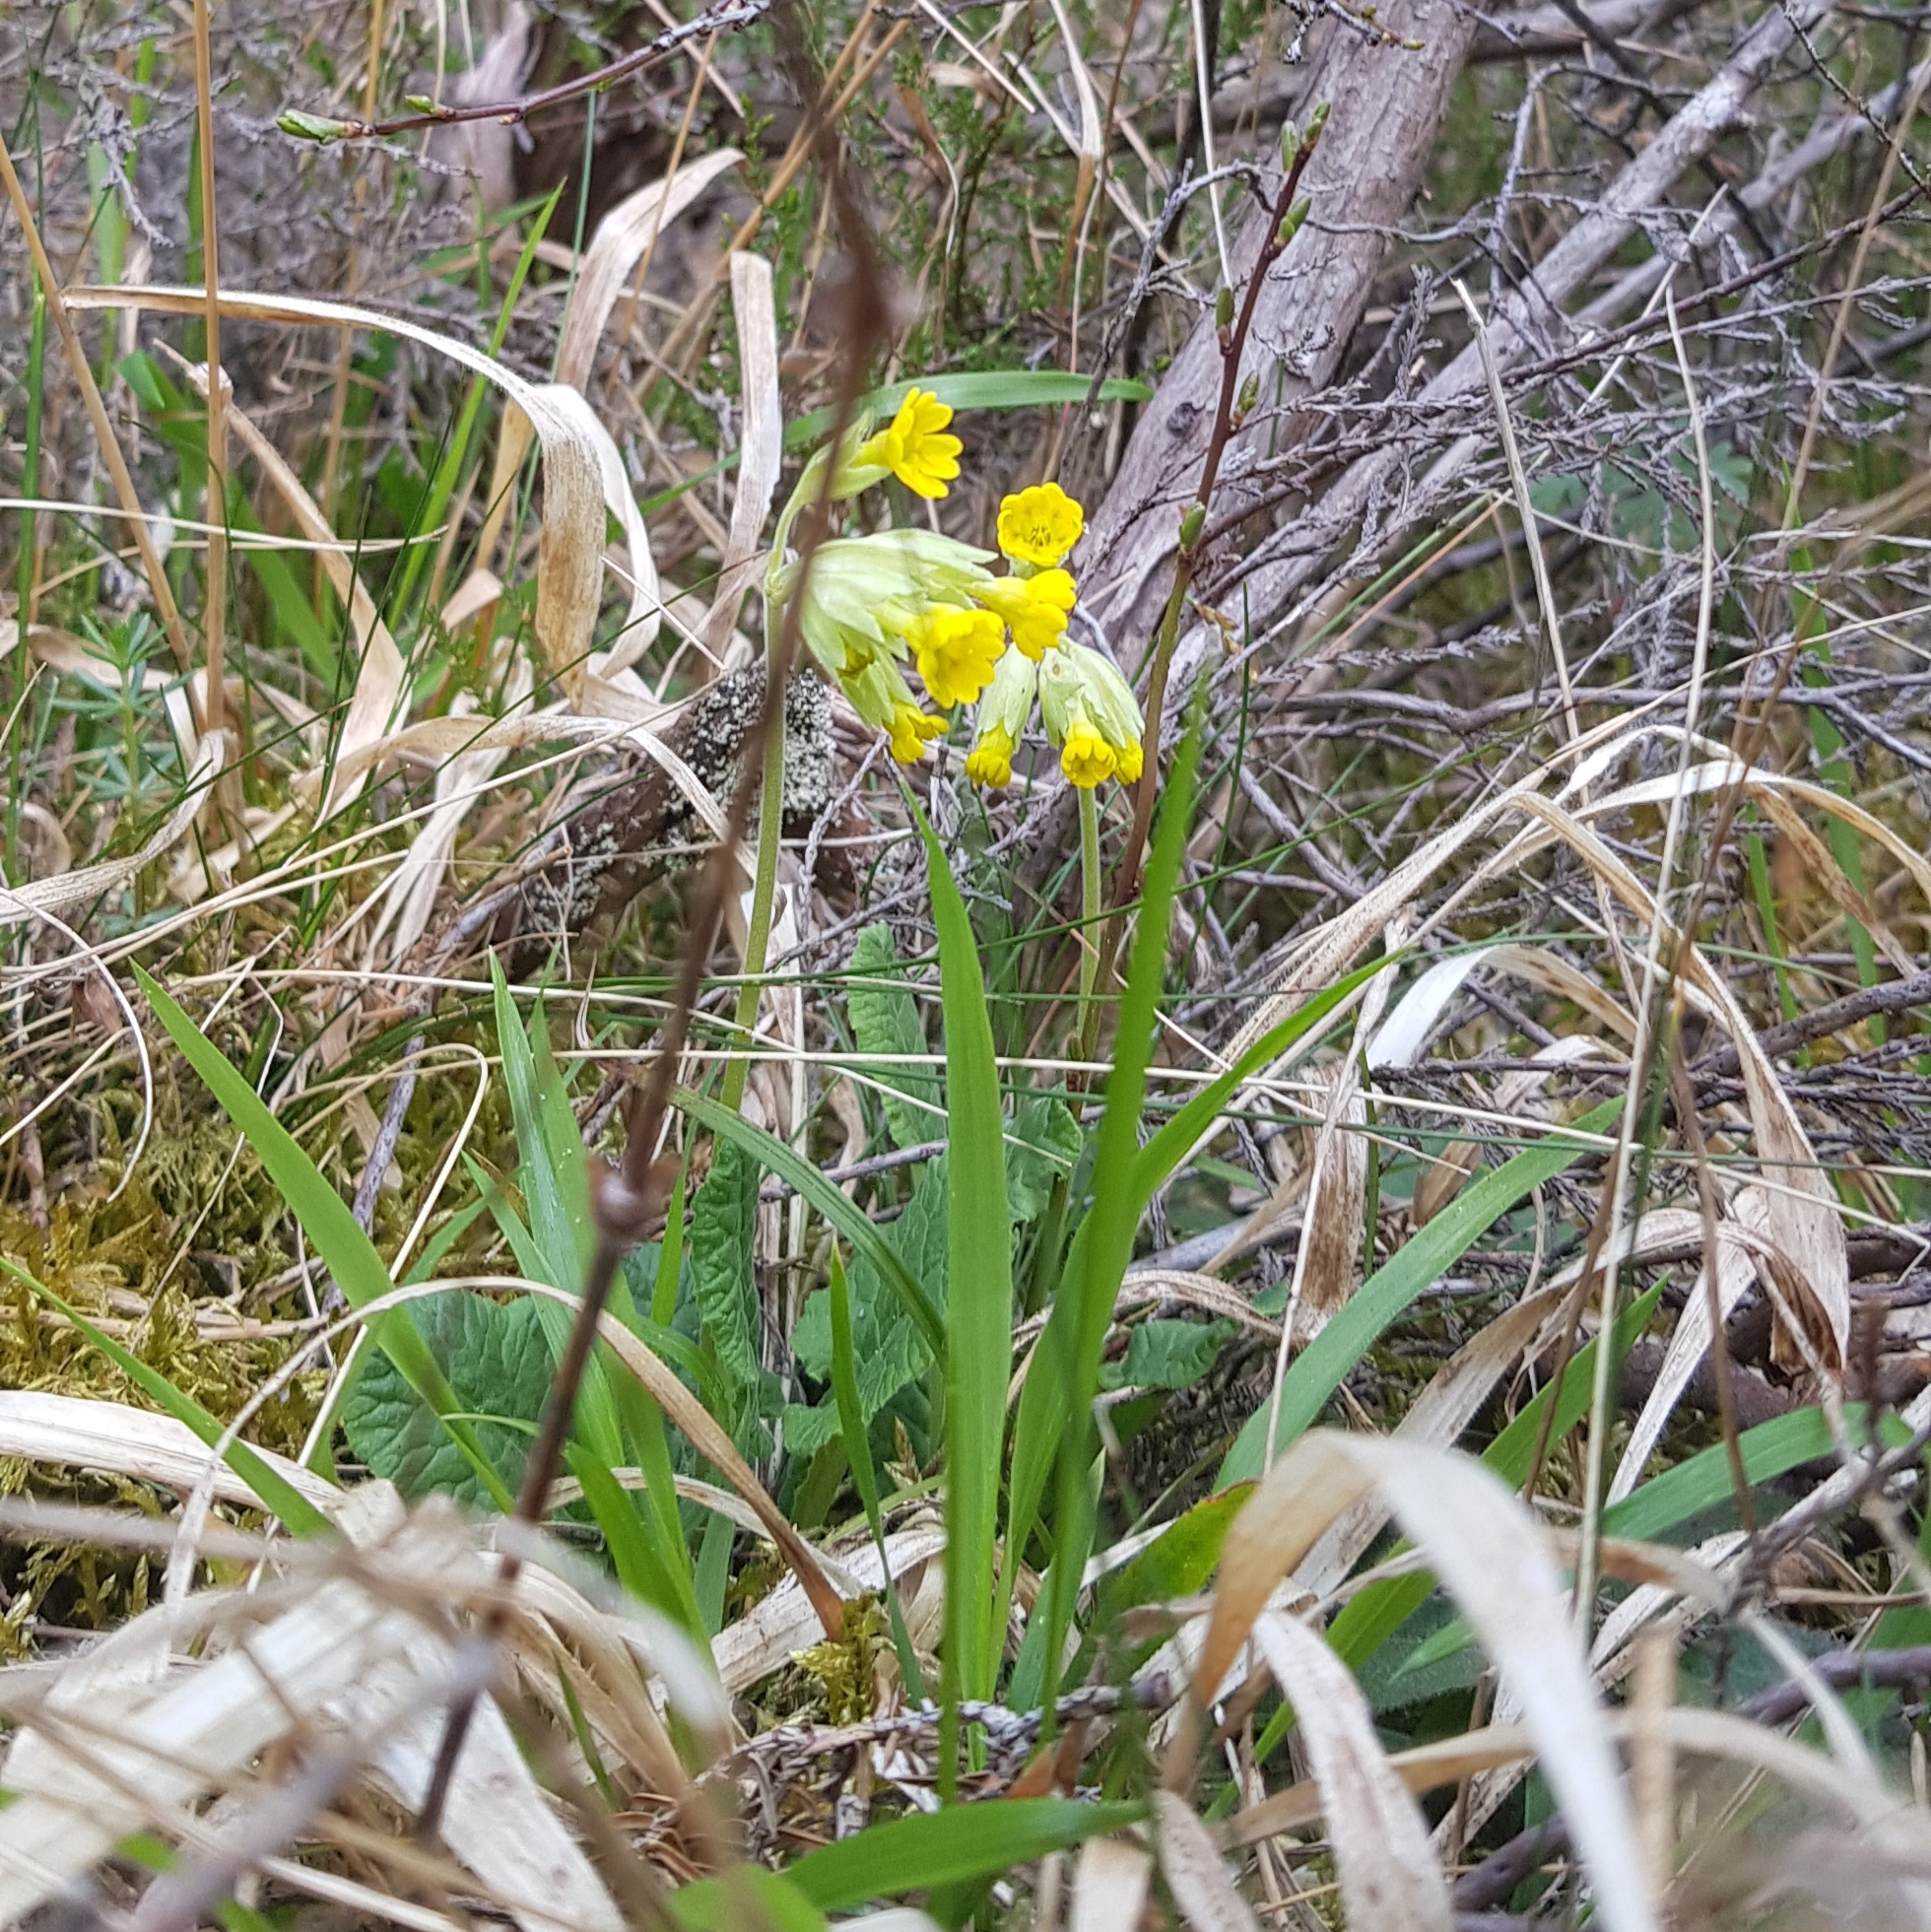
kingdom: Plantae
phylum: Tracheophyta
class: Magnoliopsida
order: Ericales
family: Primulaceae
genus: Primula
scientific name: Primula veris
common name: Cowslip
